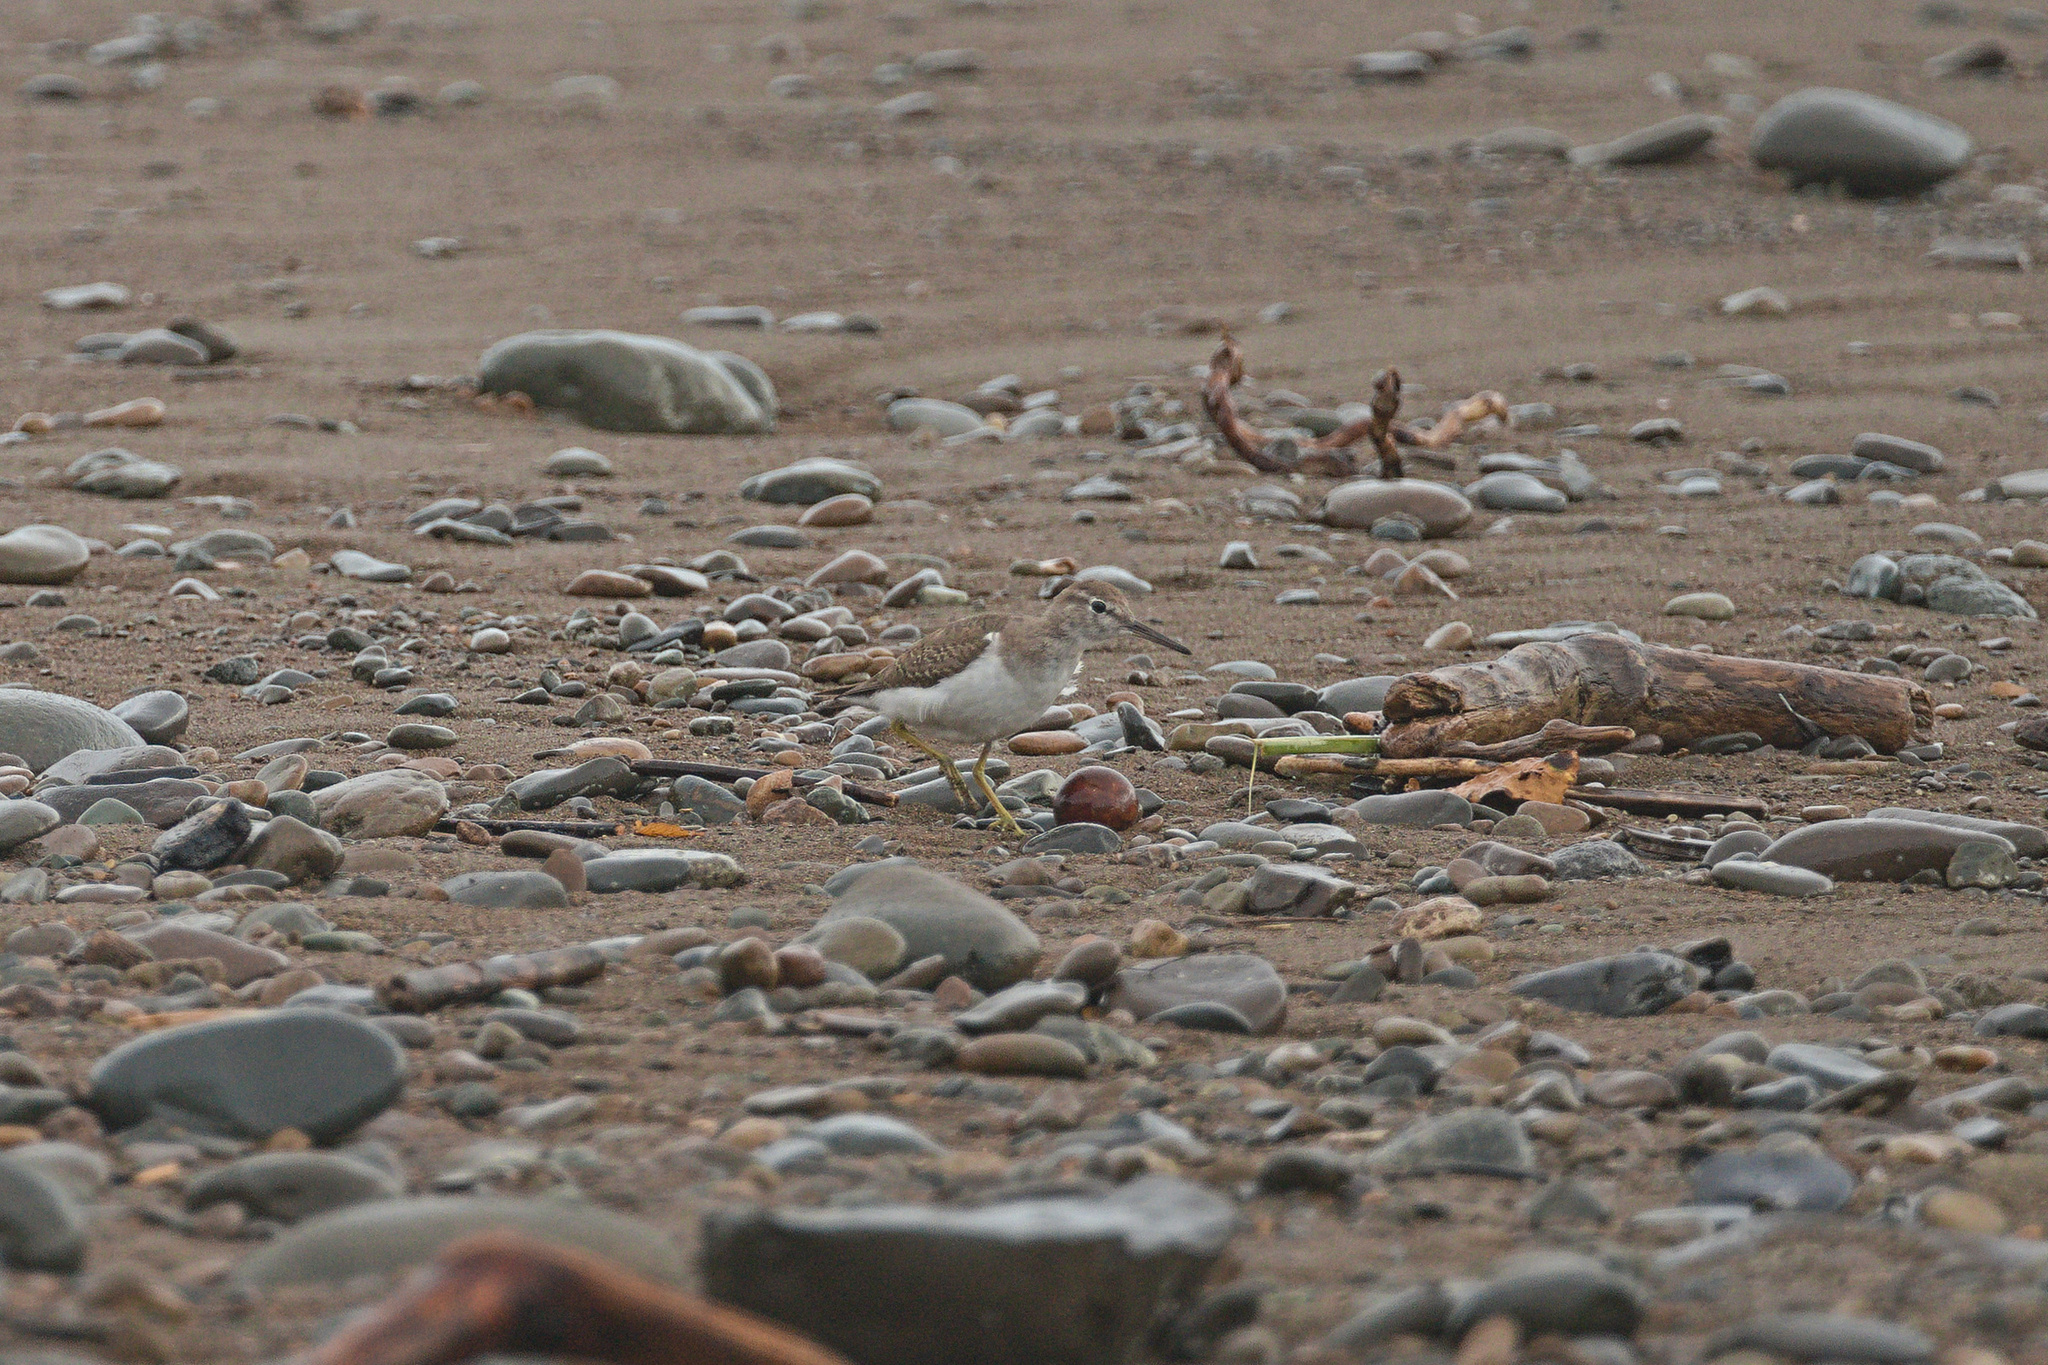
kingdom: Animalia
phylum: Chordata
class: Aves
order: Charadriiformes
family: Scolopacidae
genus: Actitis
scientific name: Actitis macularius
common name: Spotted sandpiper
